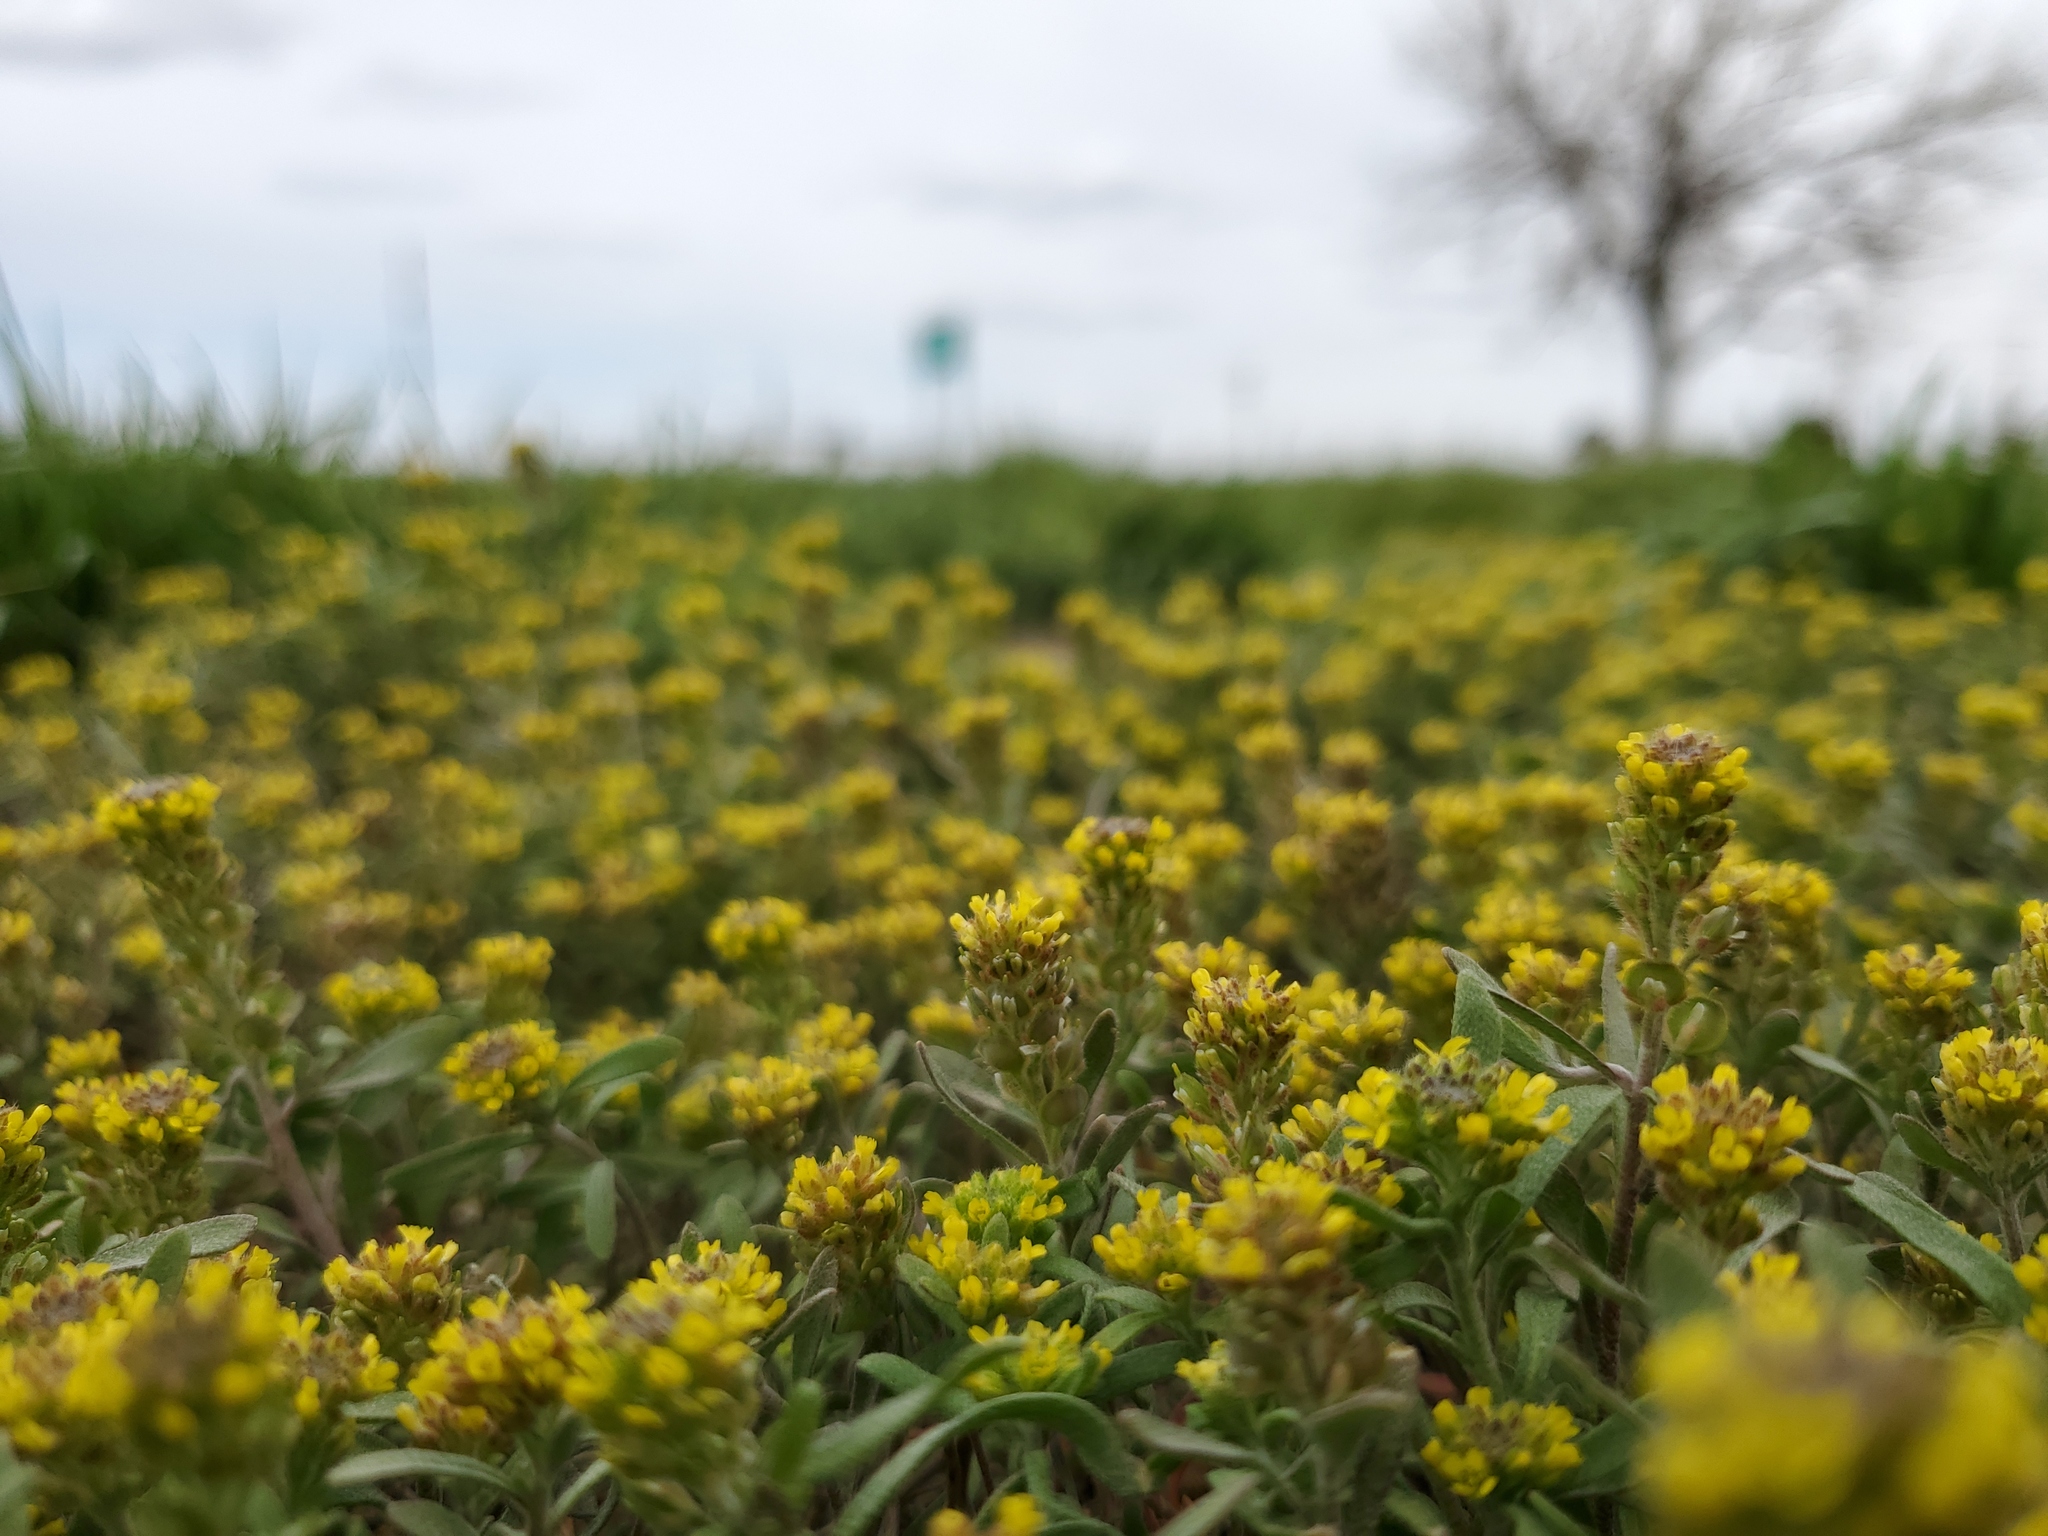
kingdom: Plantae
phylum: Tracheophyta
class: Magnoliopsida
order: Brassicales
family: Brassicaceae
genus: Alyssum
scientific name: Alyssum turkestanicum
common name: Desert alyssum
